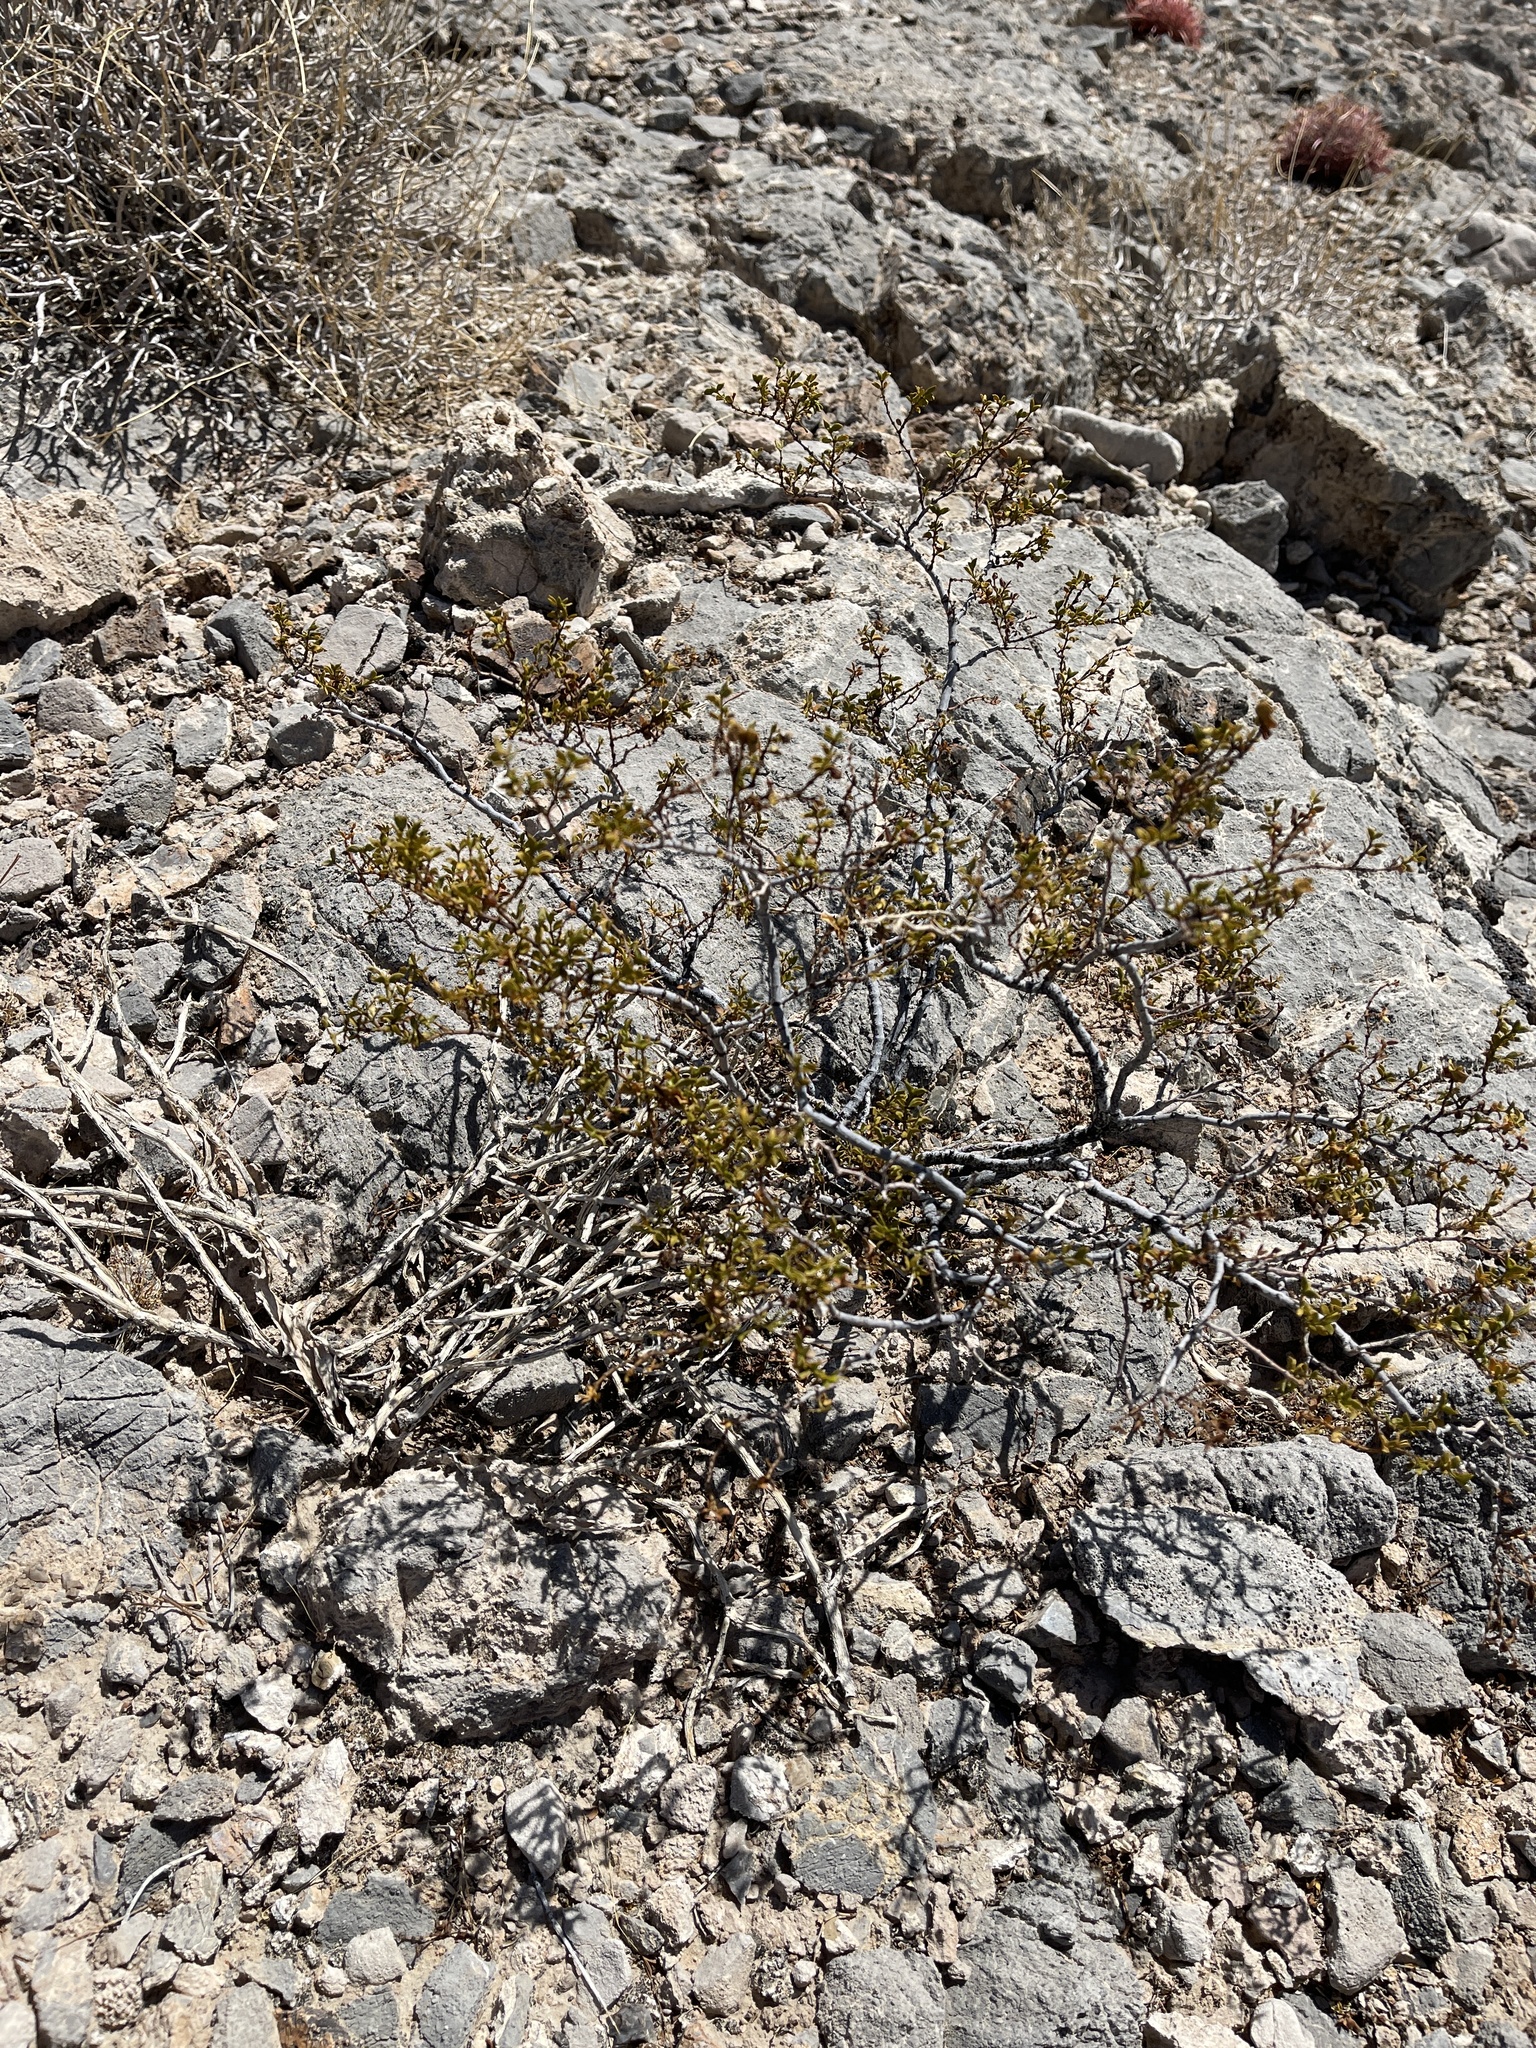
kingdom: Plantae
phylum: Tracheophyta
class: Magnoliopsida
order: Zygophyllales
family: Zygophyllaceae
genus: Larrea
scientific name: Larrea tridentata
